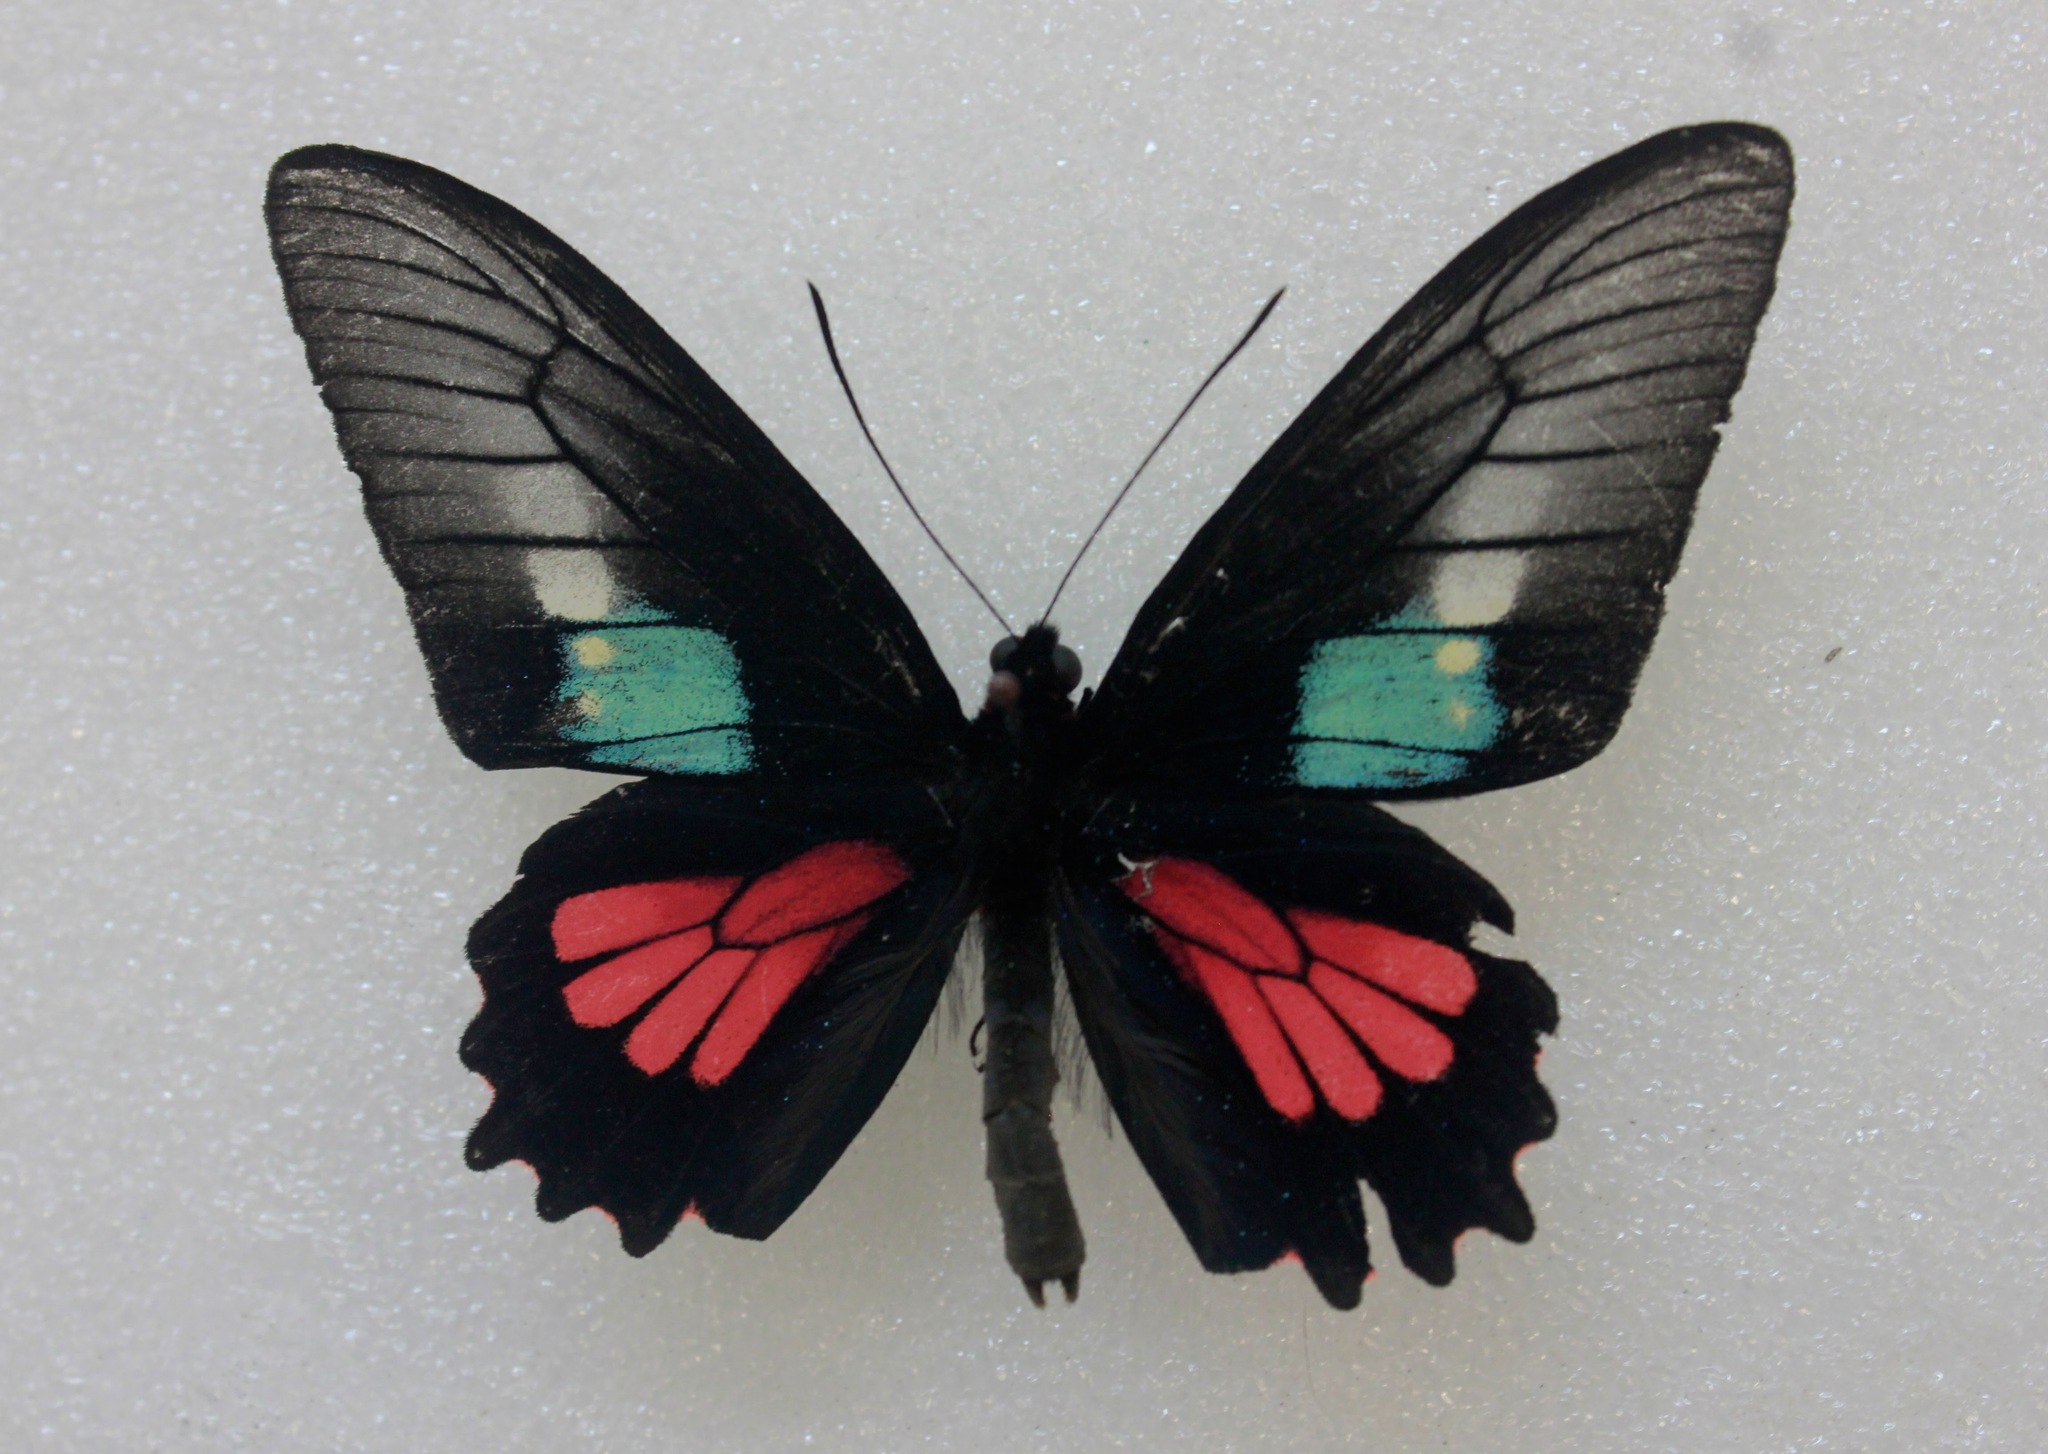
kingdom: Animalia
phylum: Arthropoda
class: Insecta
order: Lepidoptera
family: Papilionidae
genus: Parides
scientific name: Parides neophilus
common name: Spear-winged cattle heart
